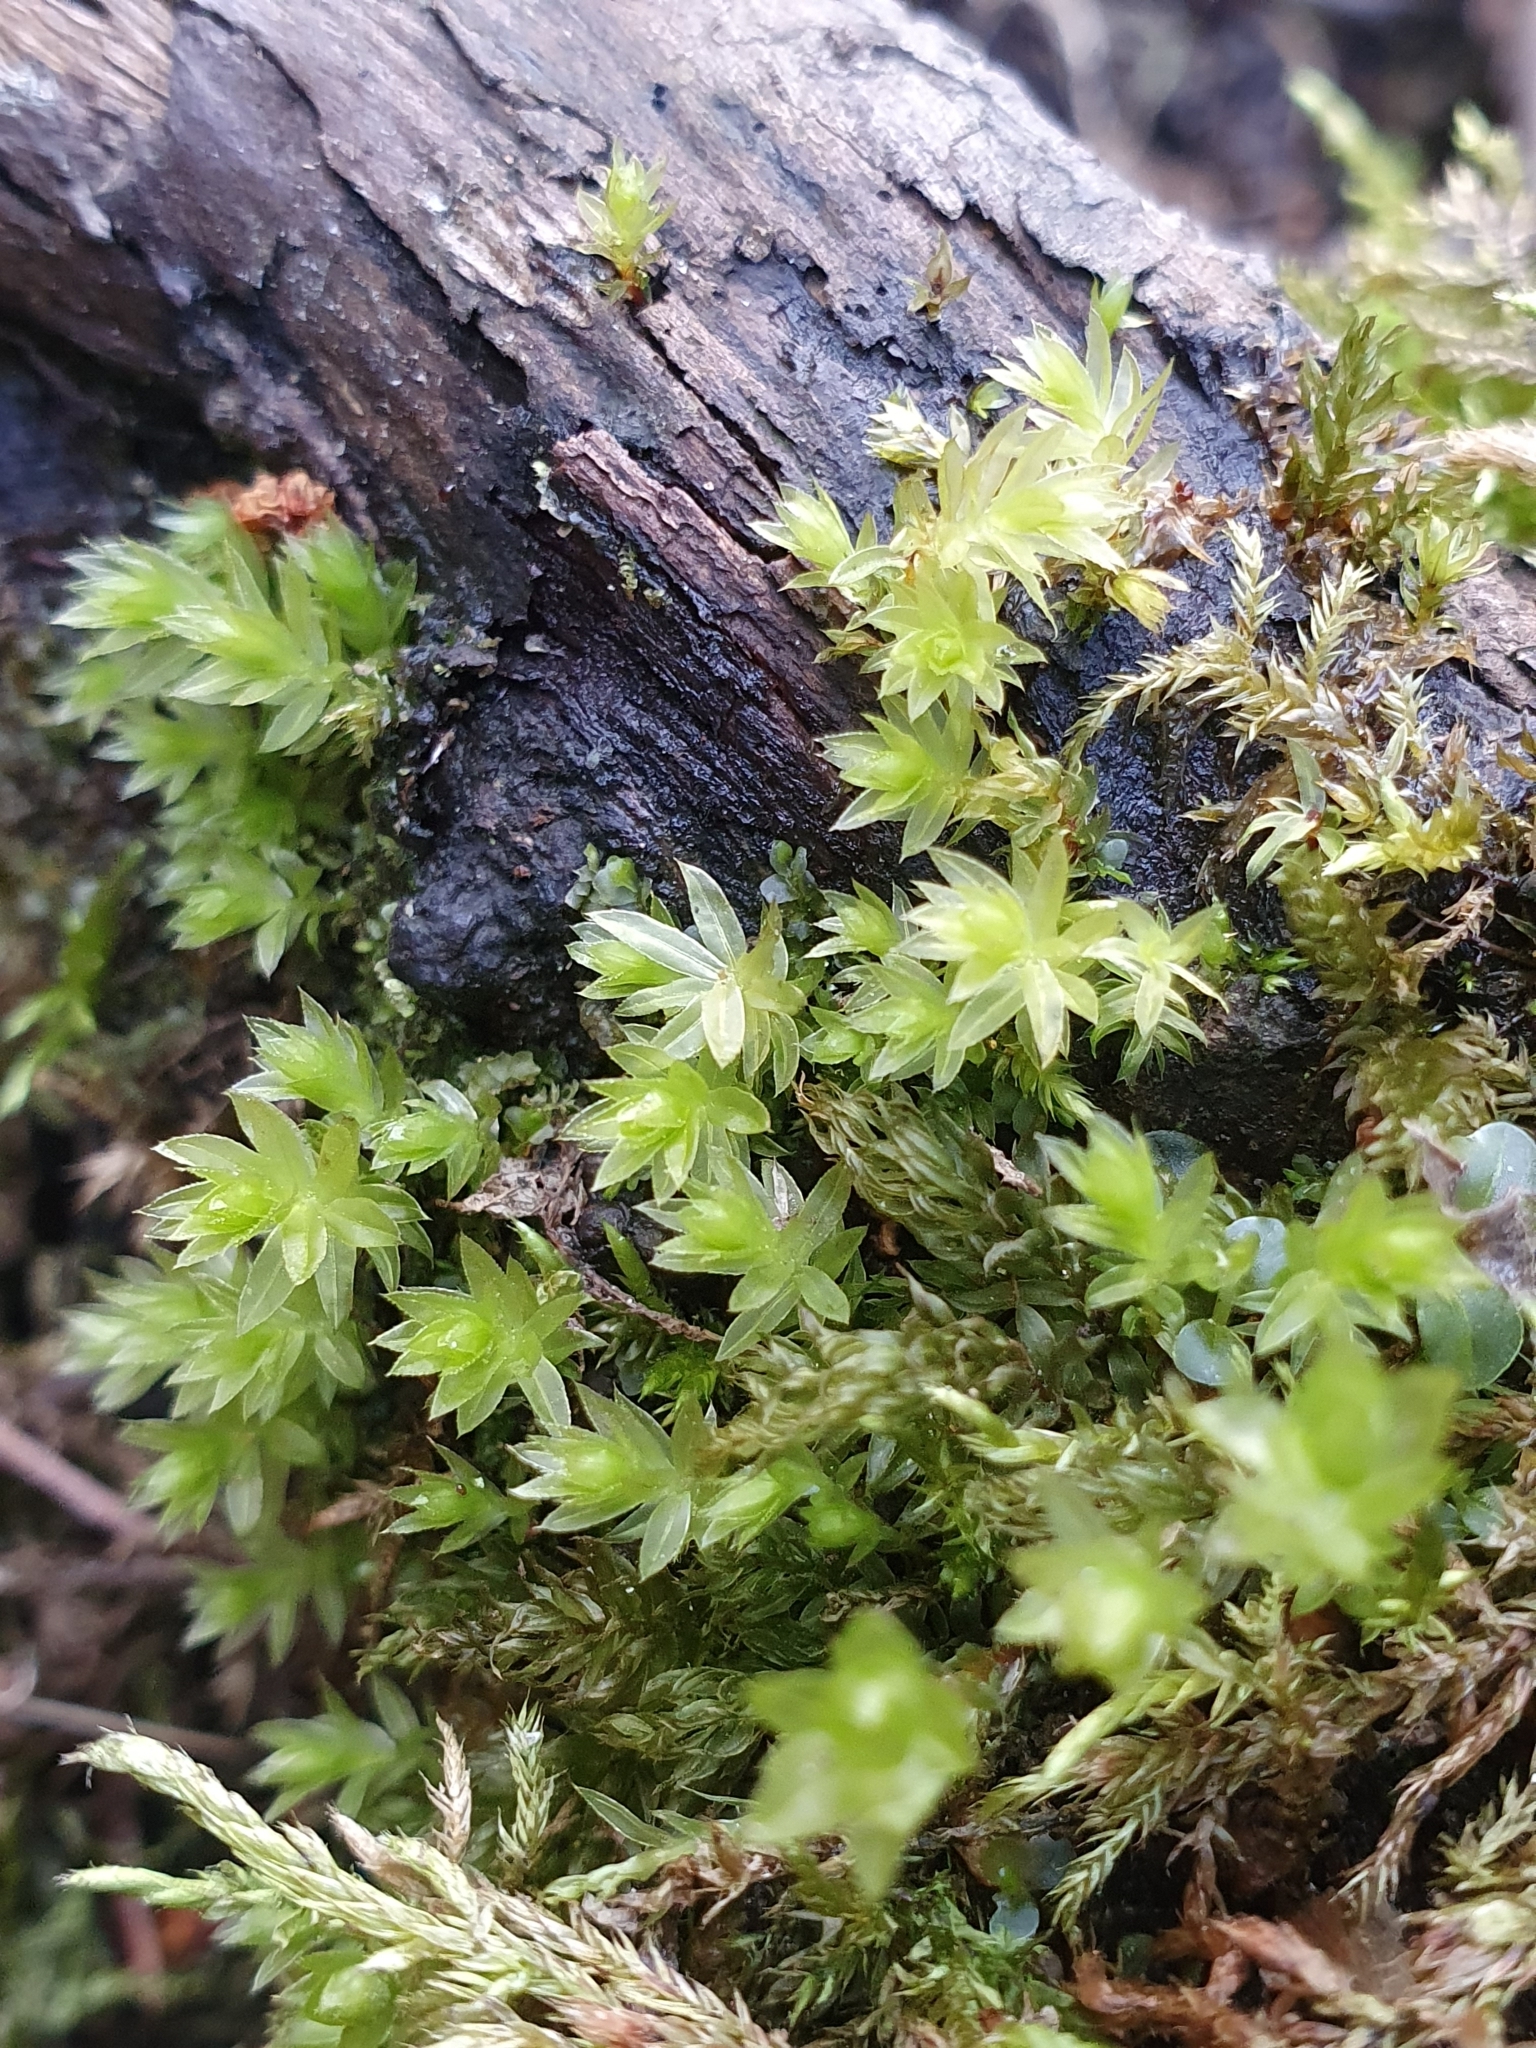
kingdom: Plantae
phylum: Bryophyta
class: Bryopsida
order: Bryales
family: Mniaceae
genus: Mnium
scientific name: Mnium hornum
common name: Swan's-neck leafy moss
